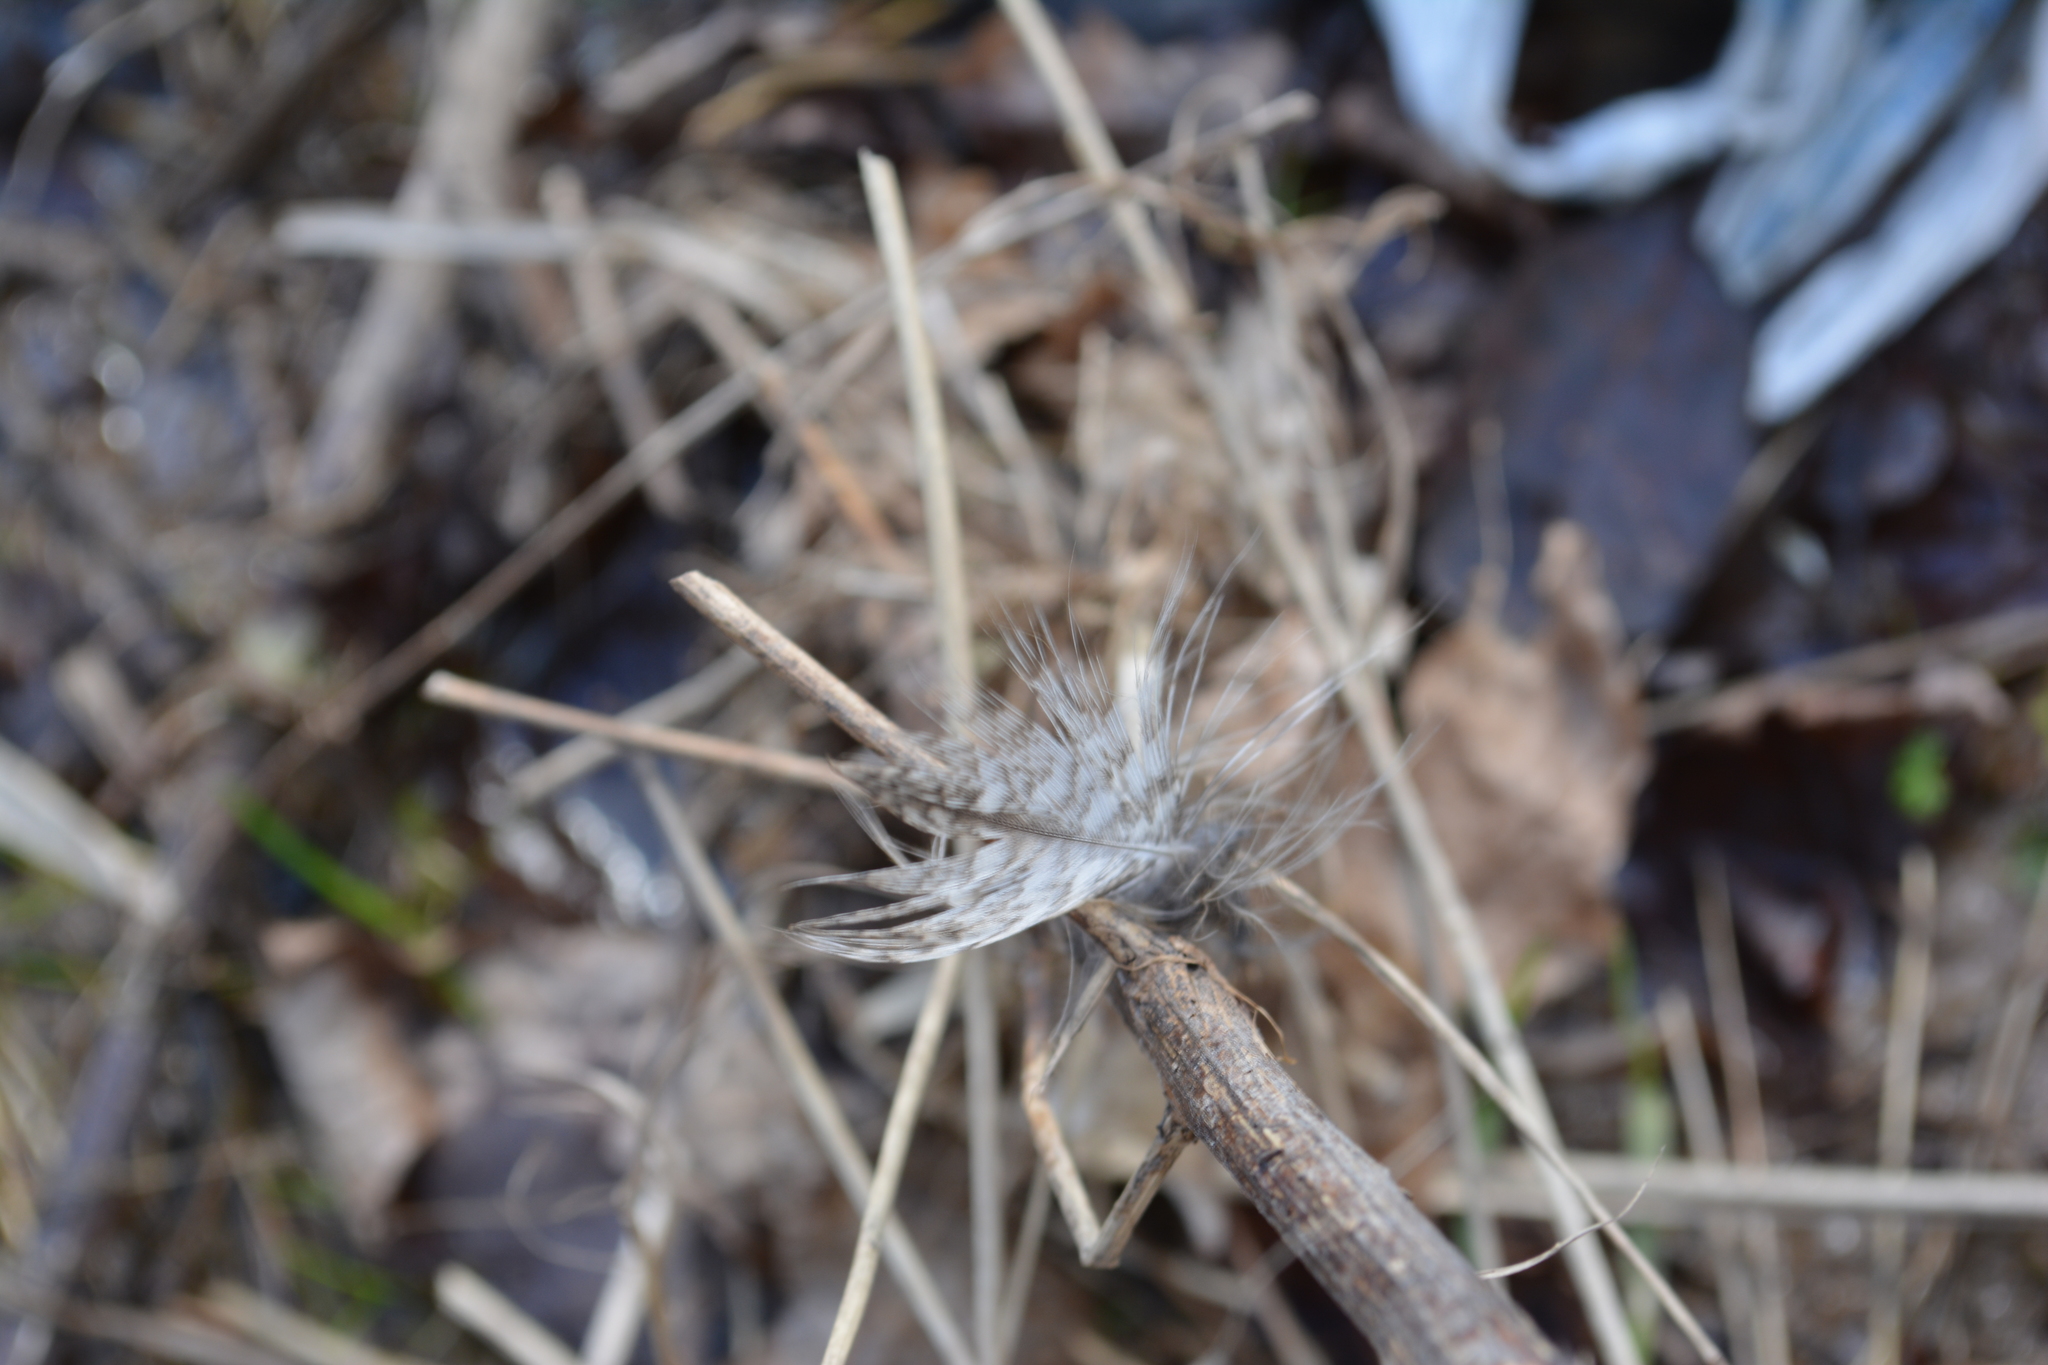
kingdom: Animalia
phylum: Chordata
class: Aves
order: Strigiformes
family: Strigidae
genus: Strix
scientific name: Strix aluco
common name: Tawny owl
